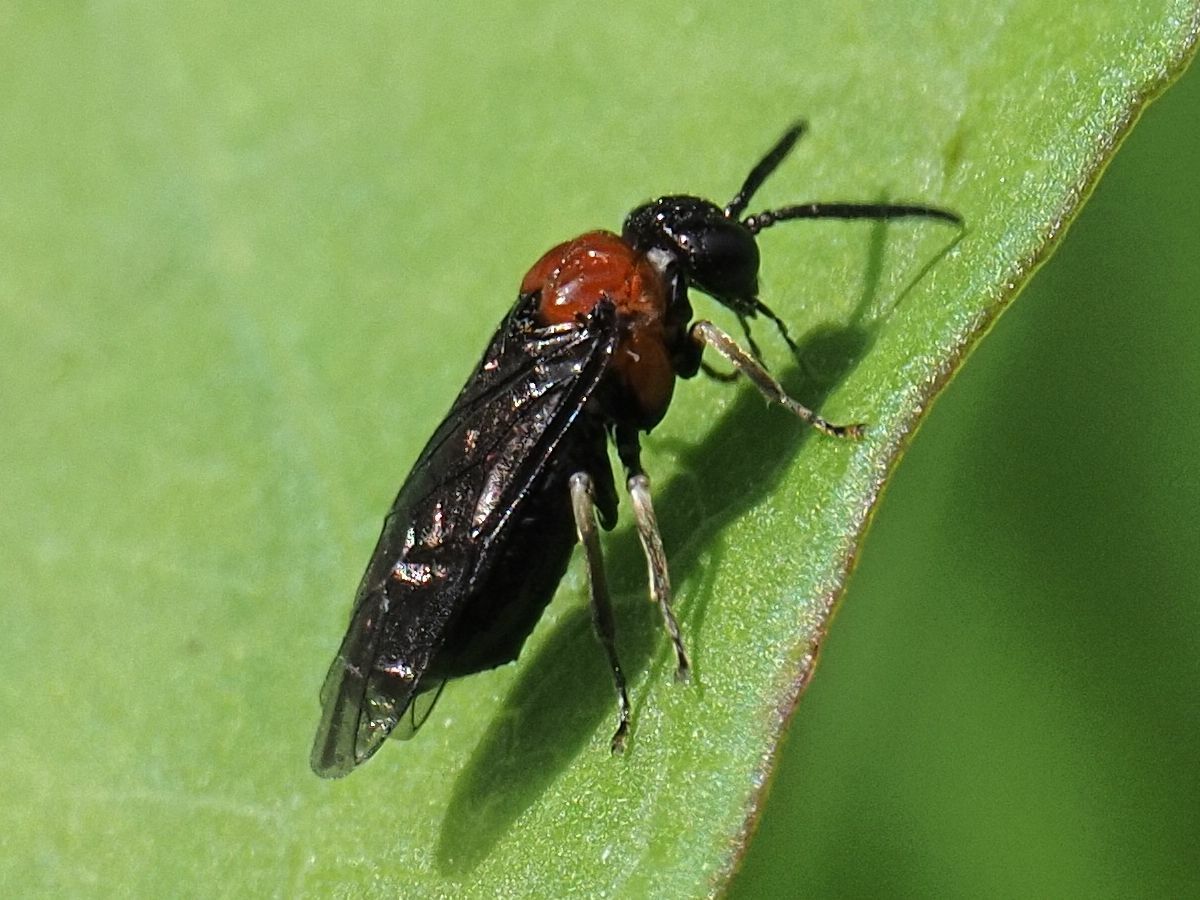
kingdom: Animalia
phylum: Arthropoda
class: Insecta
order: Hymenoptera
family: Tenthredinidae
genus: Eutomostethus
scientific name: Eutomostethus ephippium
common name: Tenthredid wasp
